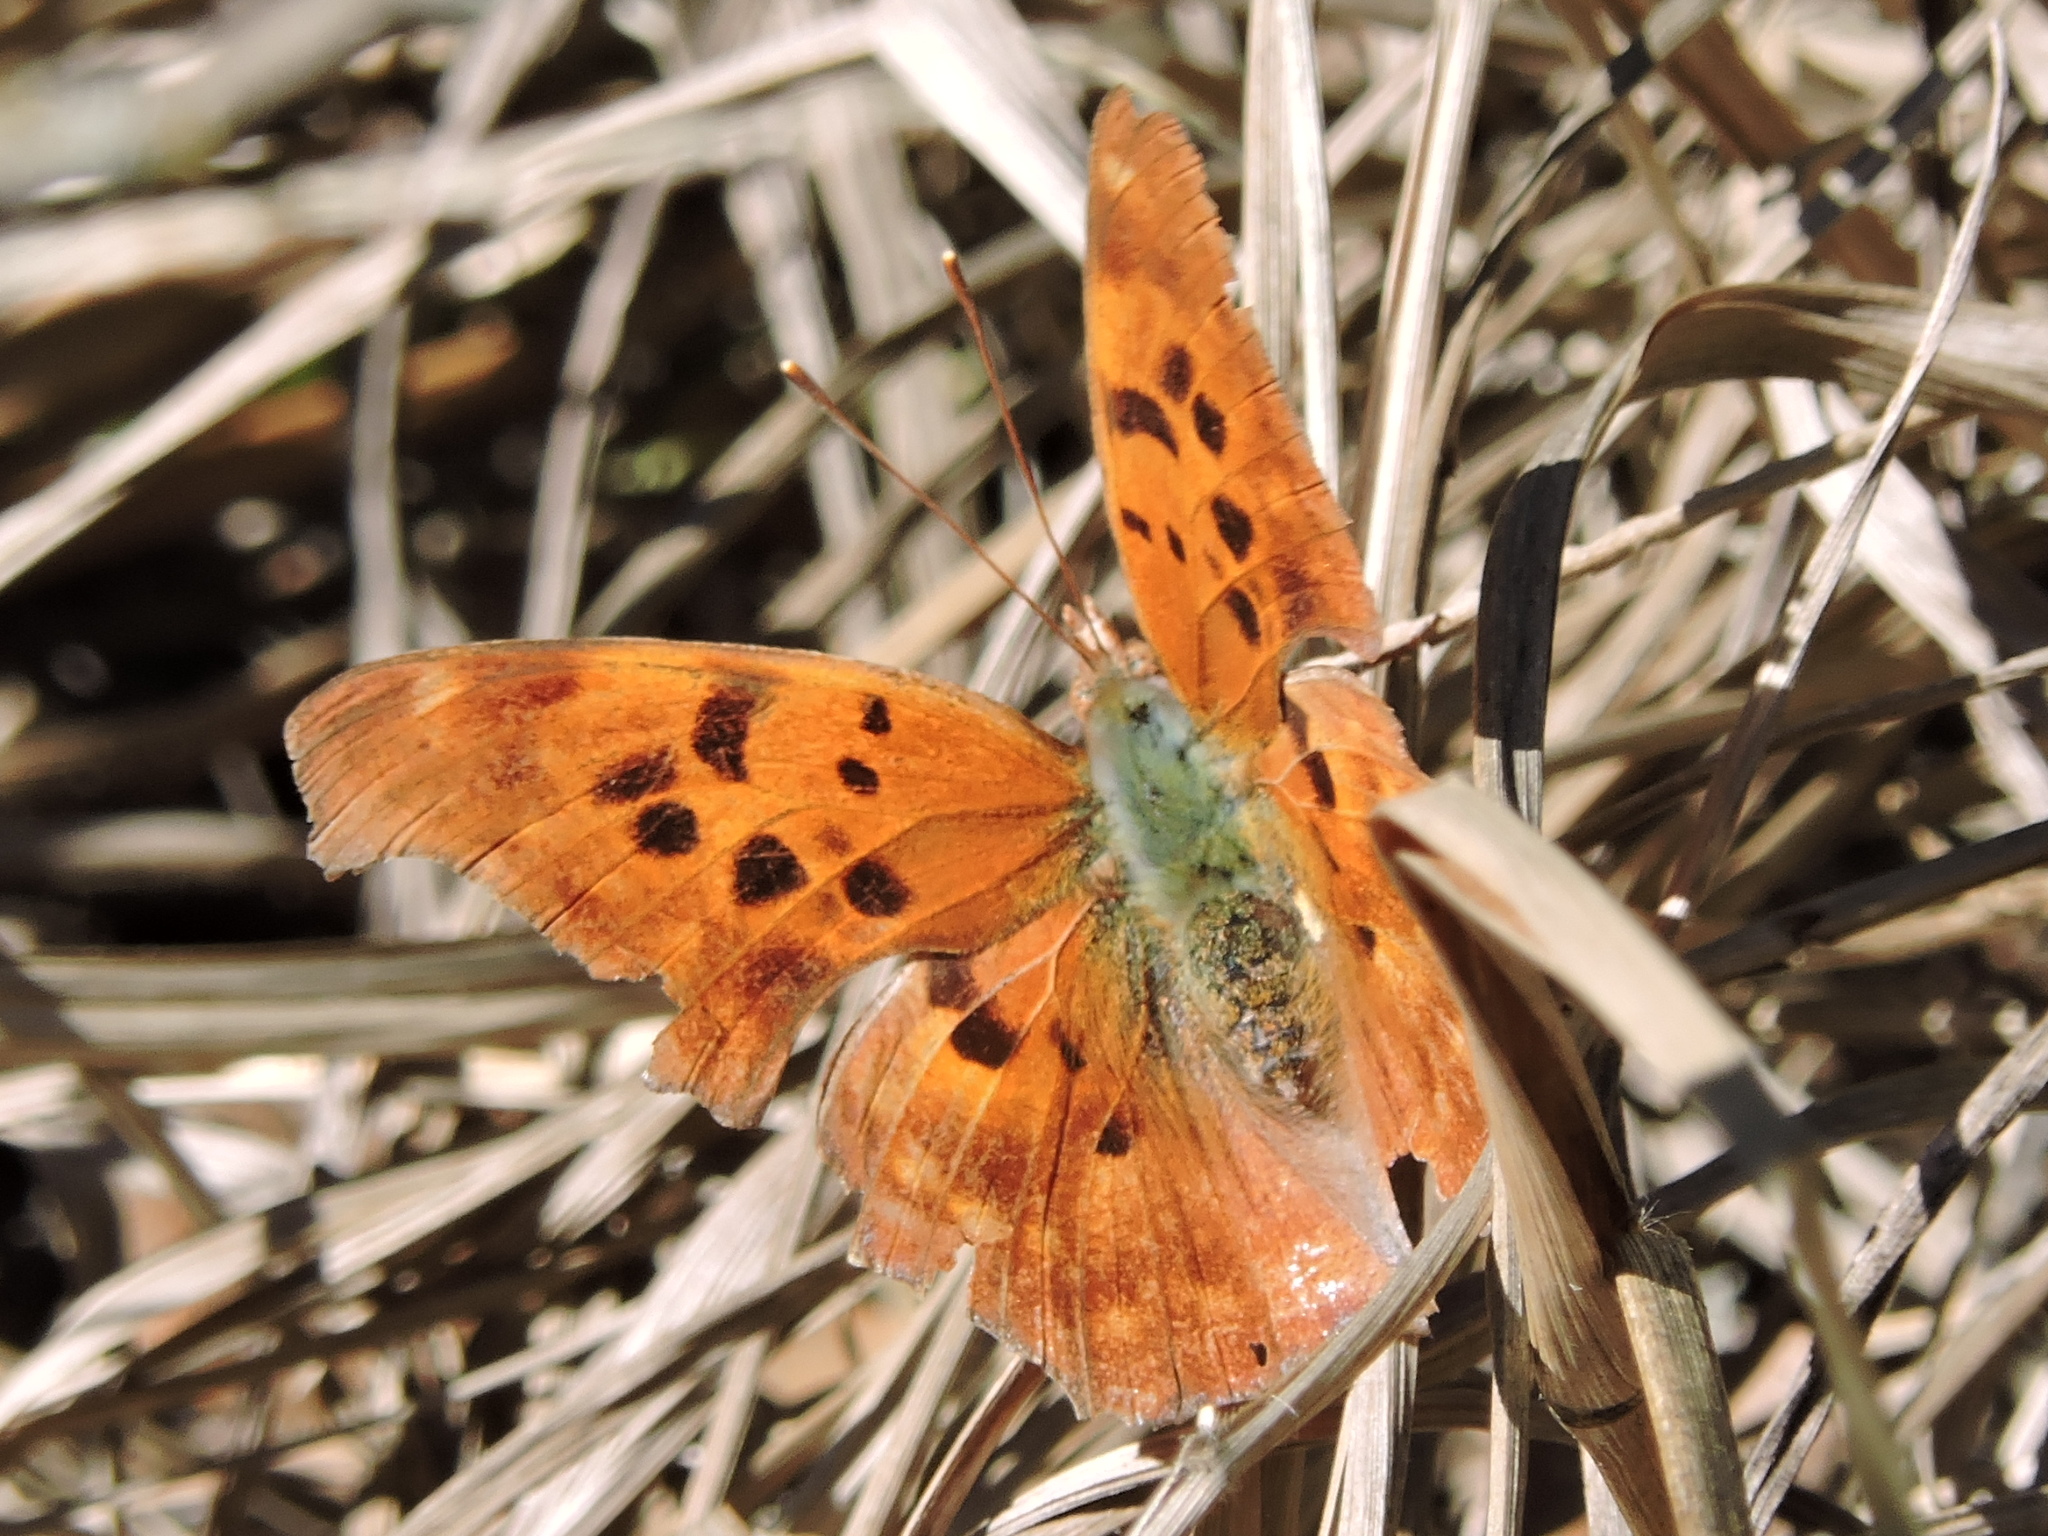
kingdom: Animalia
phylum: Arthropoda
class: Insecta
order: Lepidoptera
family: Nymphalidae
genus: Polygonia
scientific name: Polygonia interrogationis
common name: Question mark
